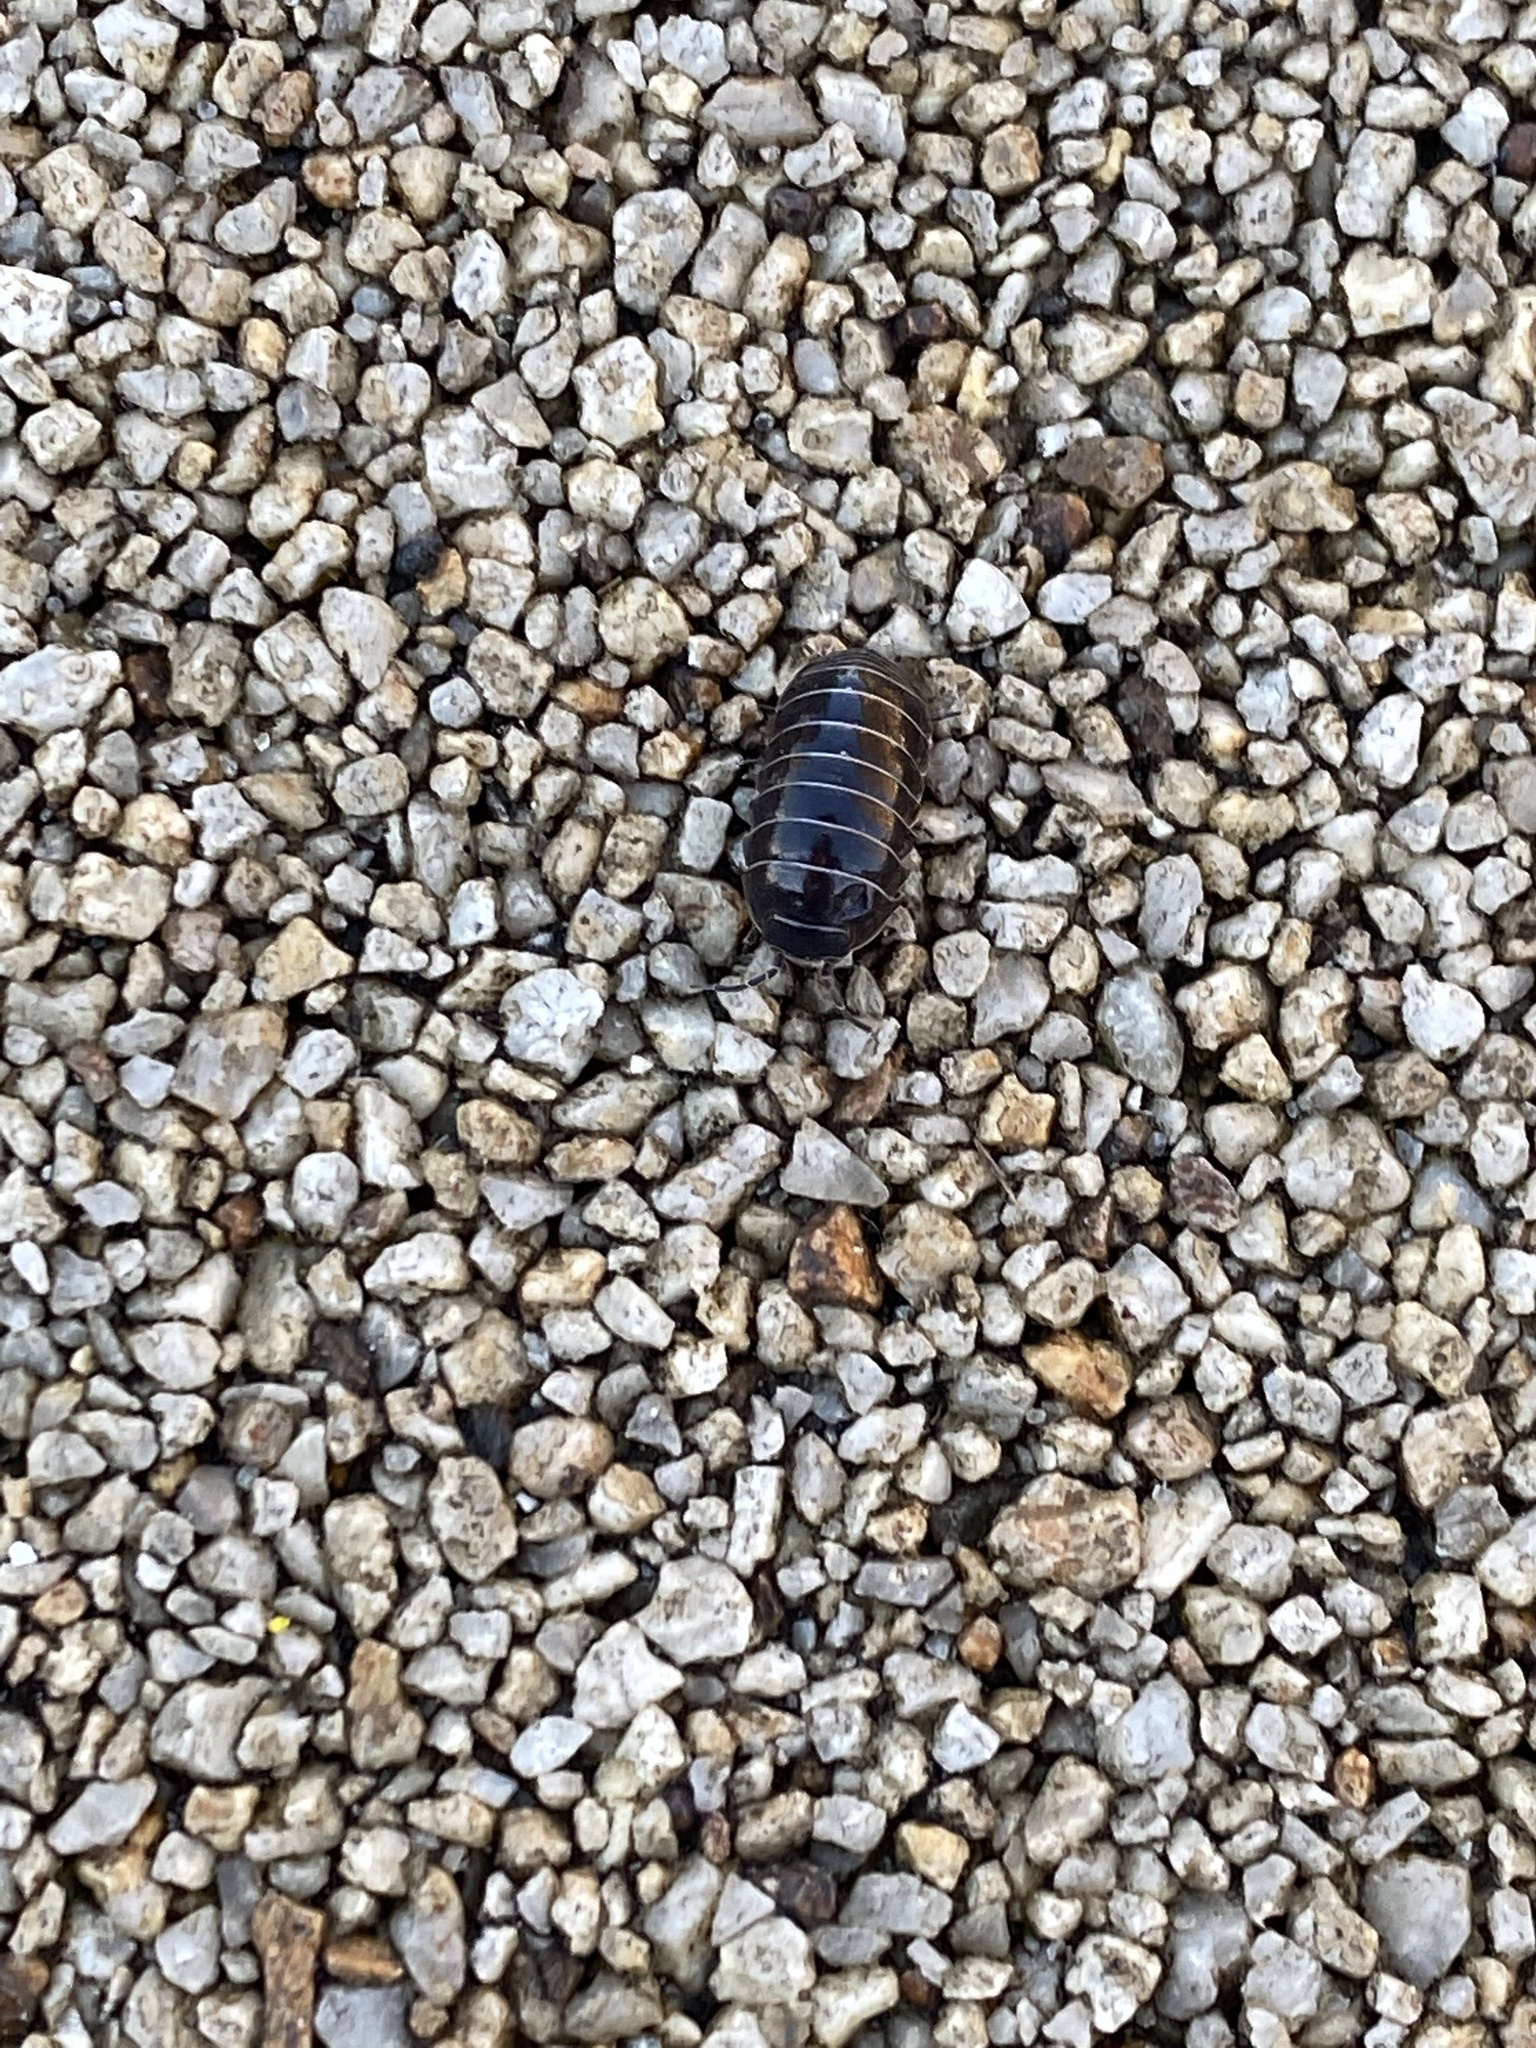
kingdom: Animalia
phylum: Arthropoda
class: Malacostraca
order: Isopoda
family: Armadillidiidae
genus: Armadillidium
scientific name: Armadillidium vulgare
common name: Common pill woodlouse
